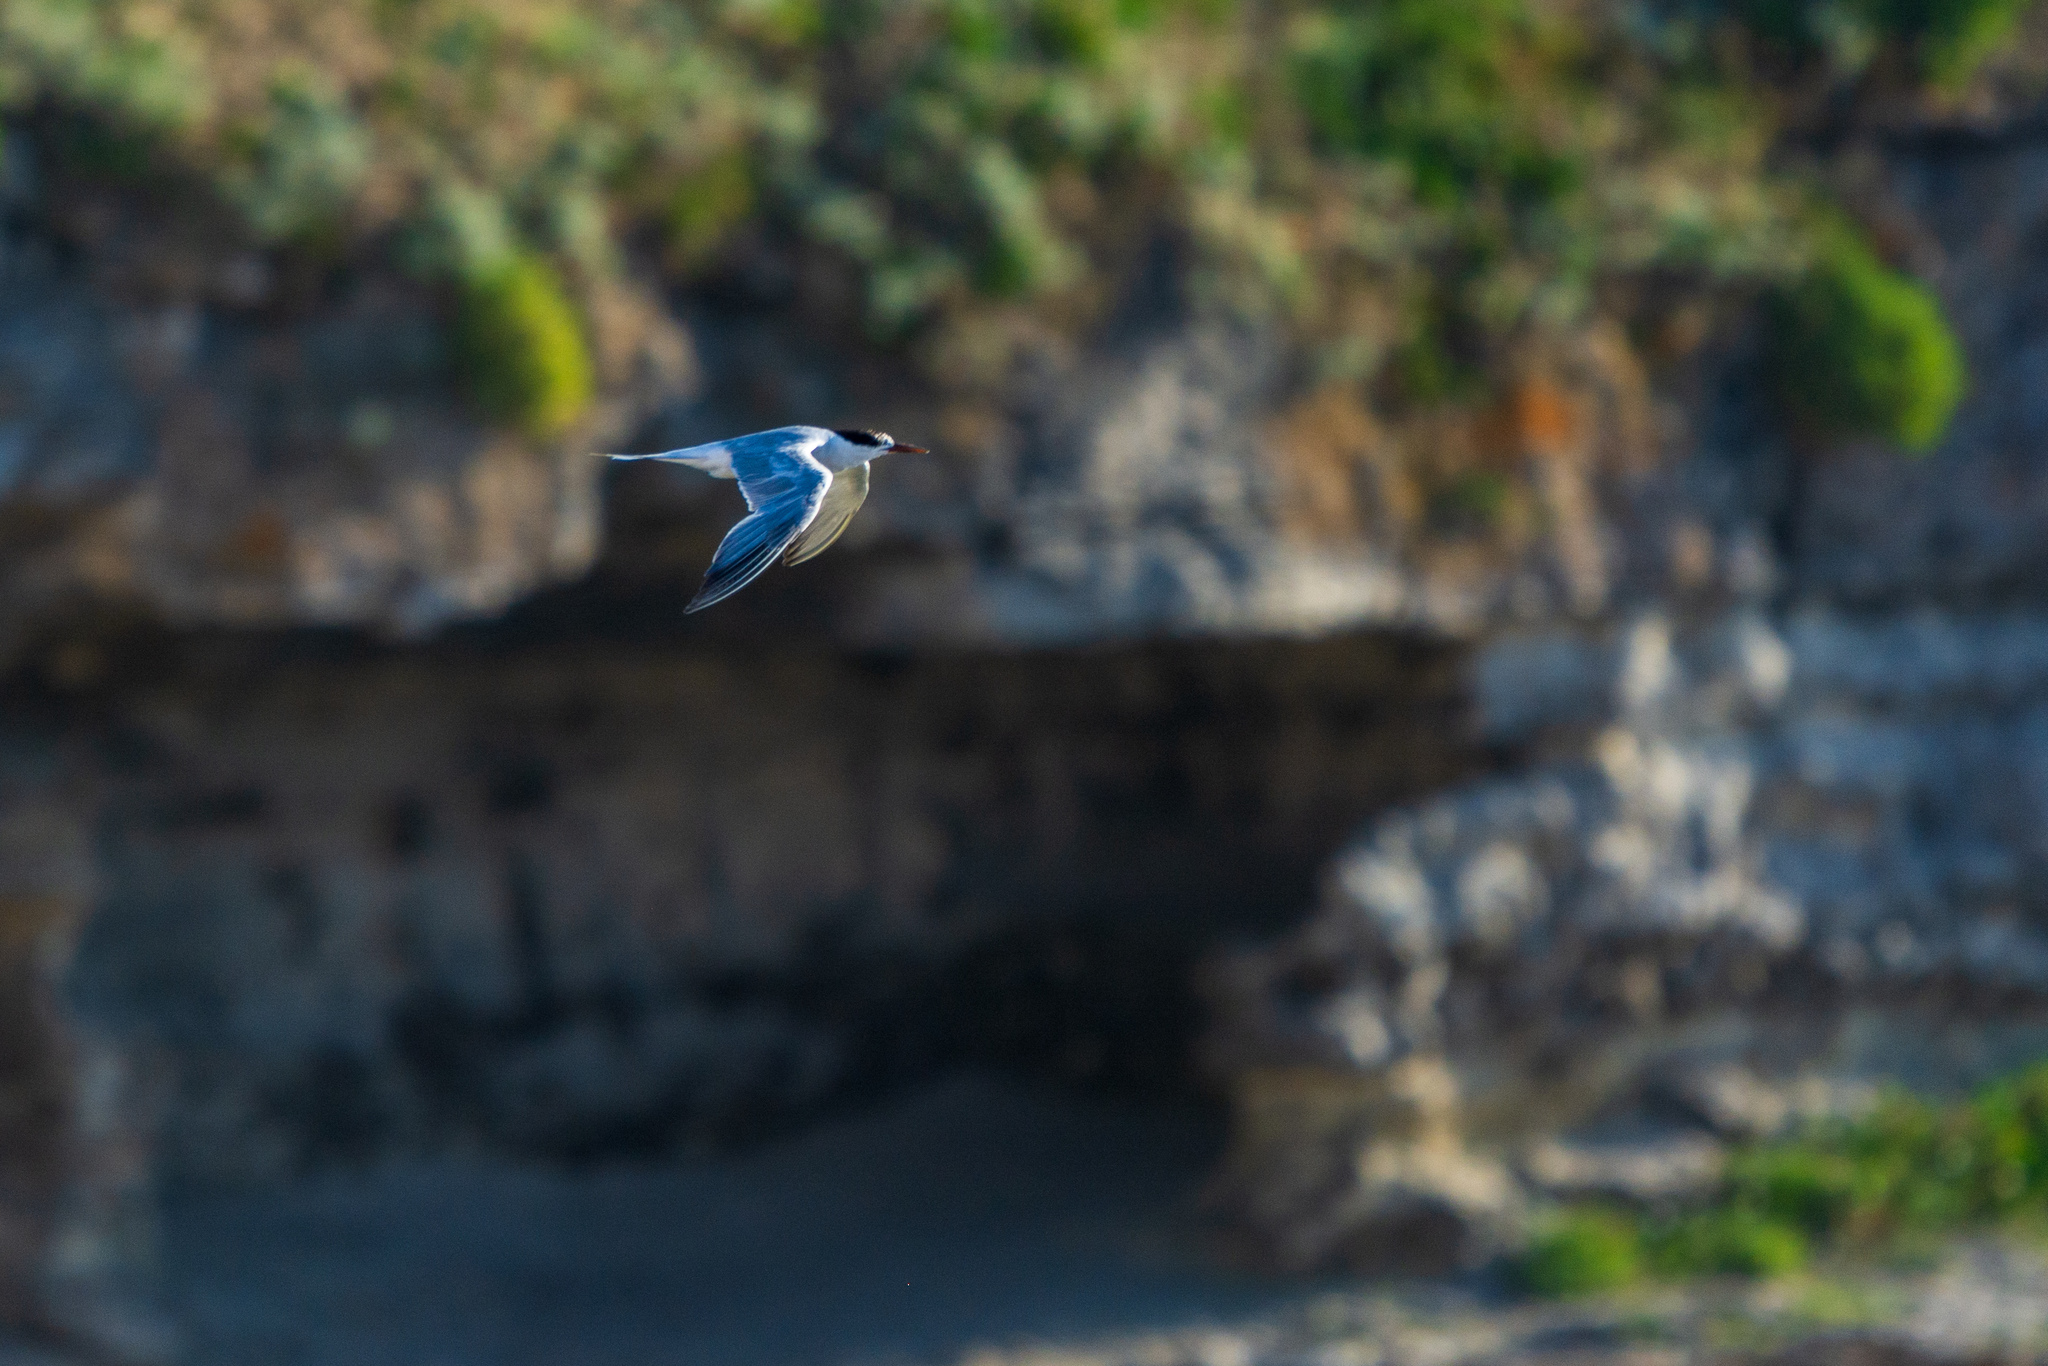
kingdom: Animalia
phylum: Chordata
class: Aves
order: Charadriiformes
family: Laridae
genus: Thalasseus
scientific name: Thalasseus sandvicensis
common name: Sandwich tern
